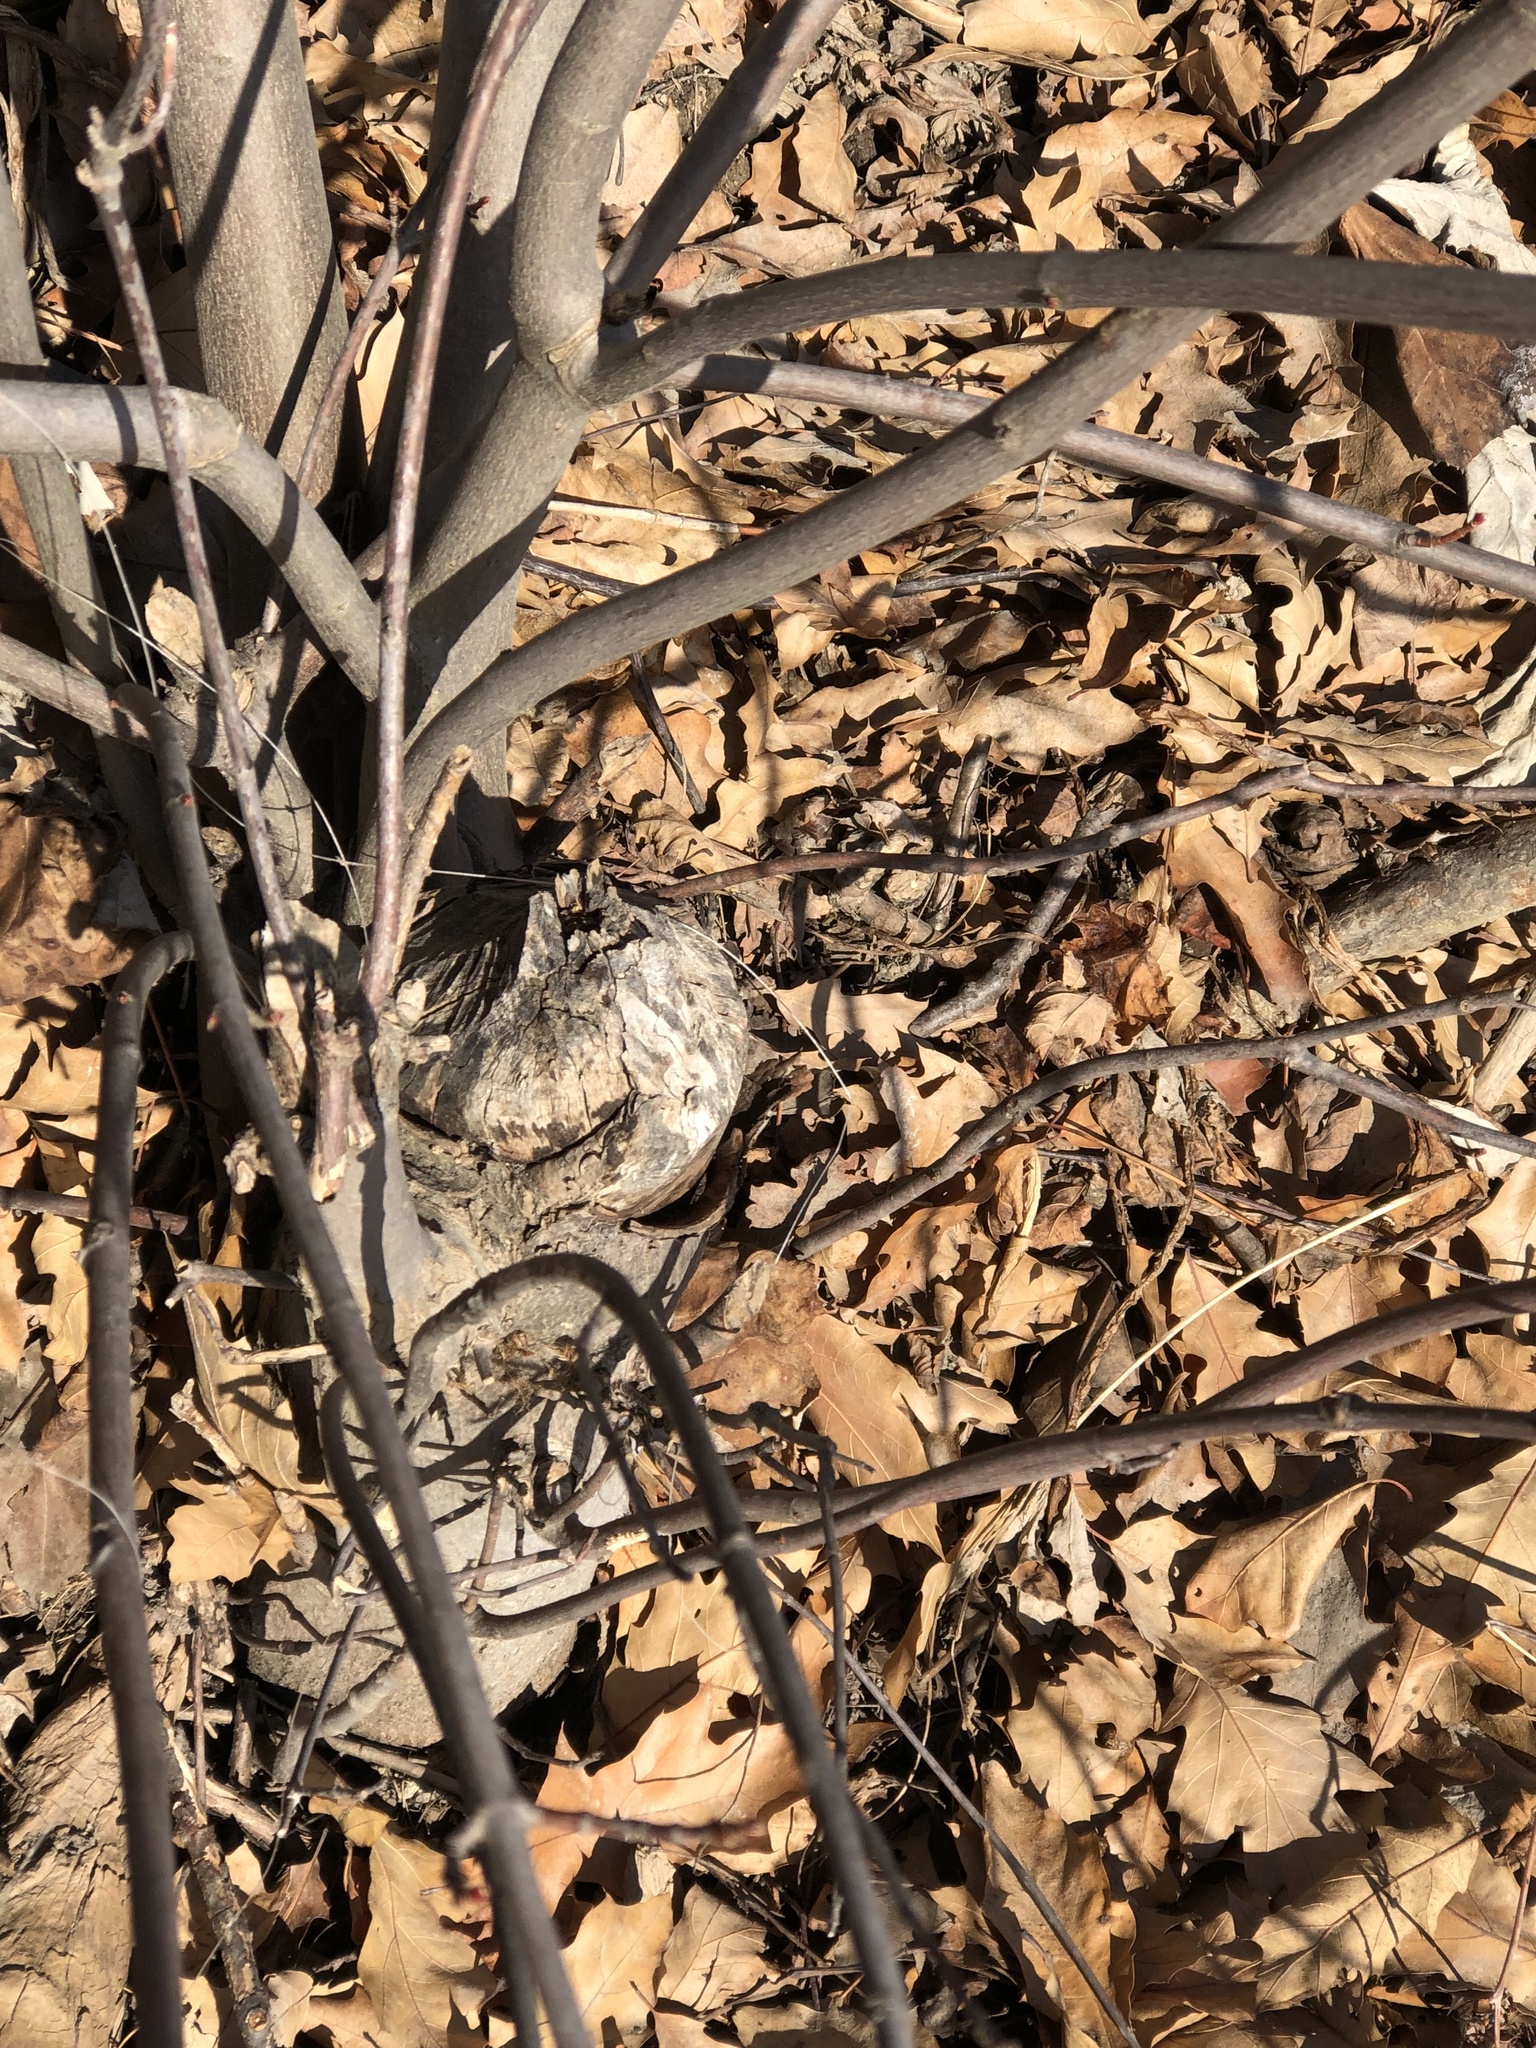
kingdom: Animalia
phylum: Chordata
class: Mammalia
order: Rodentia
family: Castoridae
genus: Castor
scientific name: Castor canadensis
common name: American beaver
